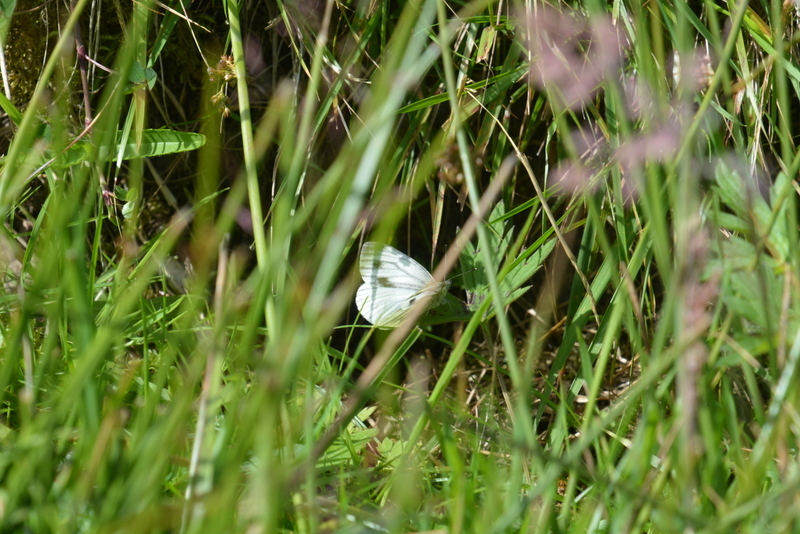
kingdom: Animalia
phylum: Arthropoda
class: Insecta
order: Lepidoptera
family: Pieridae
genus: Pieris
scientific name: Pieris napi
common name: Green-veined white
